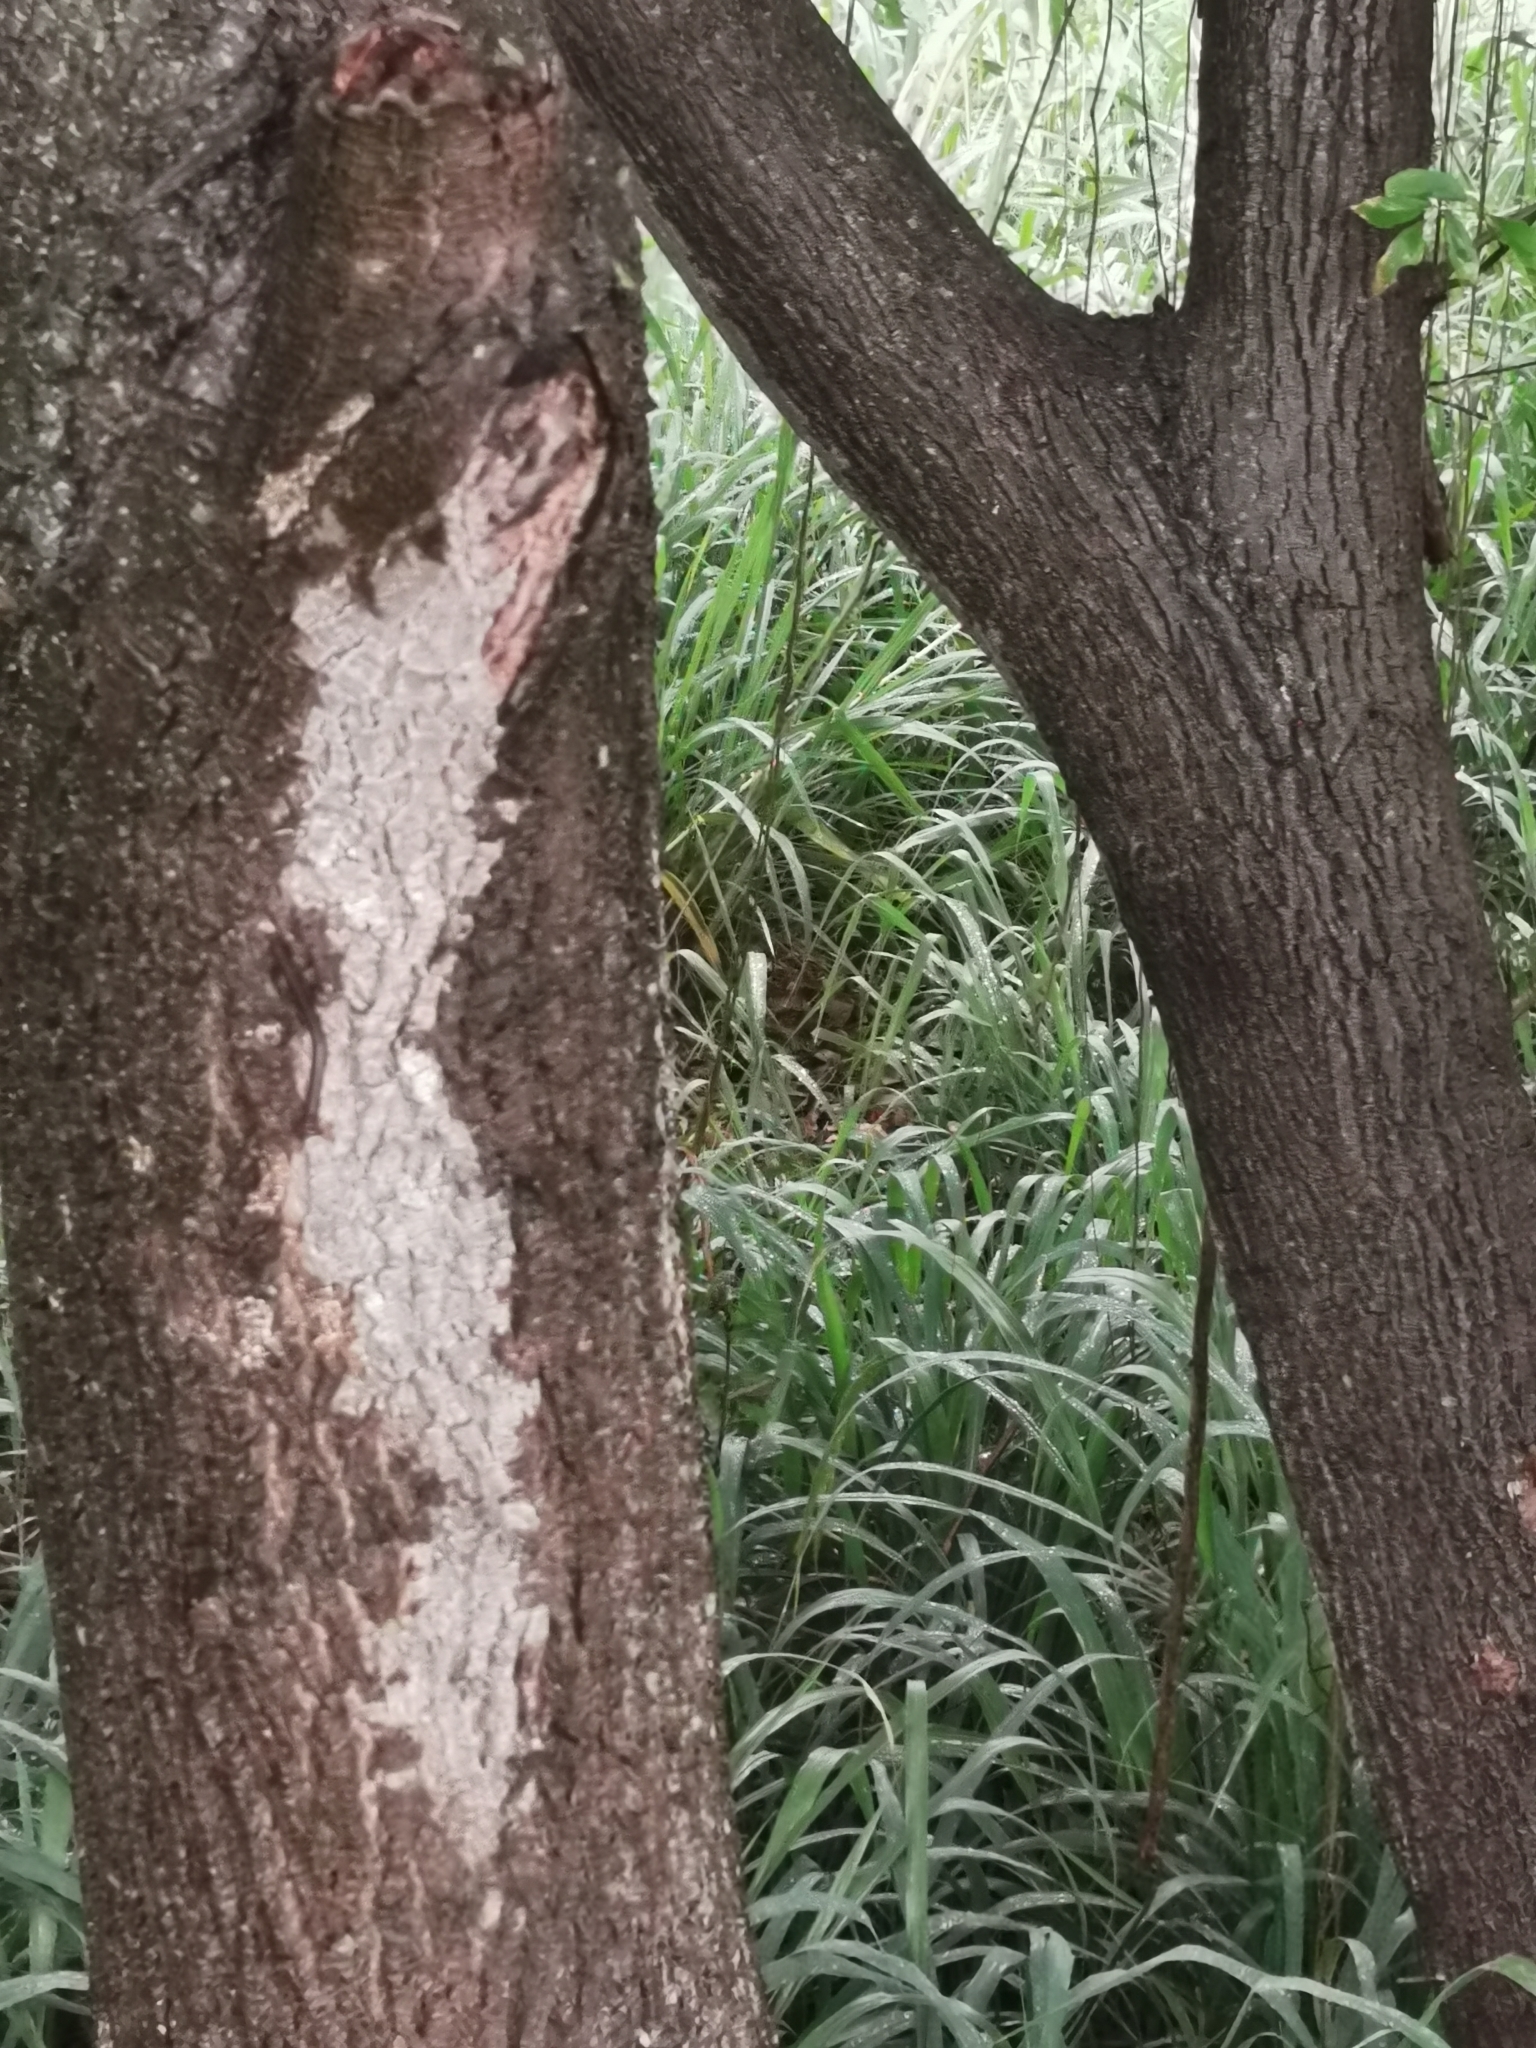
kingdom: Plantae
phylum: Tracheophyta
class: Magnoliopsida
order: Malpighiales
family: Salicaceae
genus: Salix
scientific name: Salix nigra
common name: Black willow
